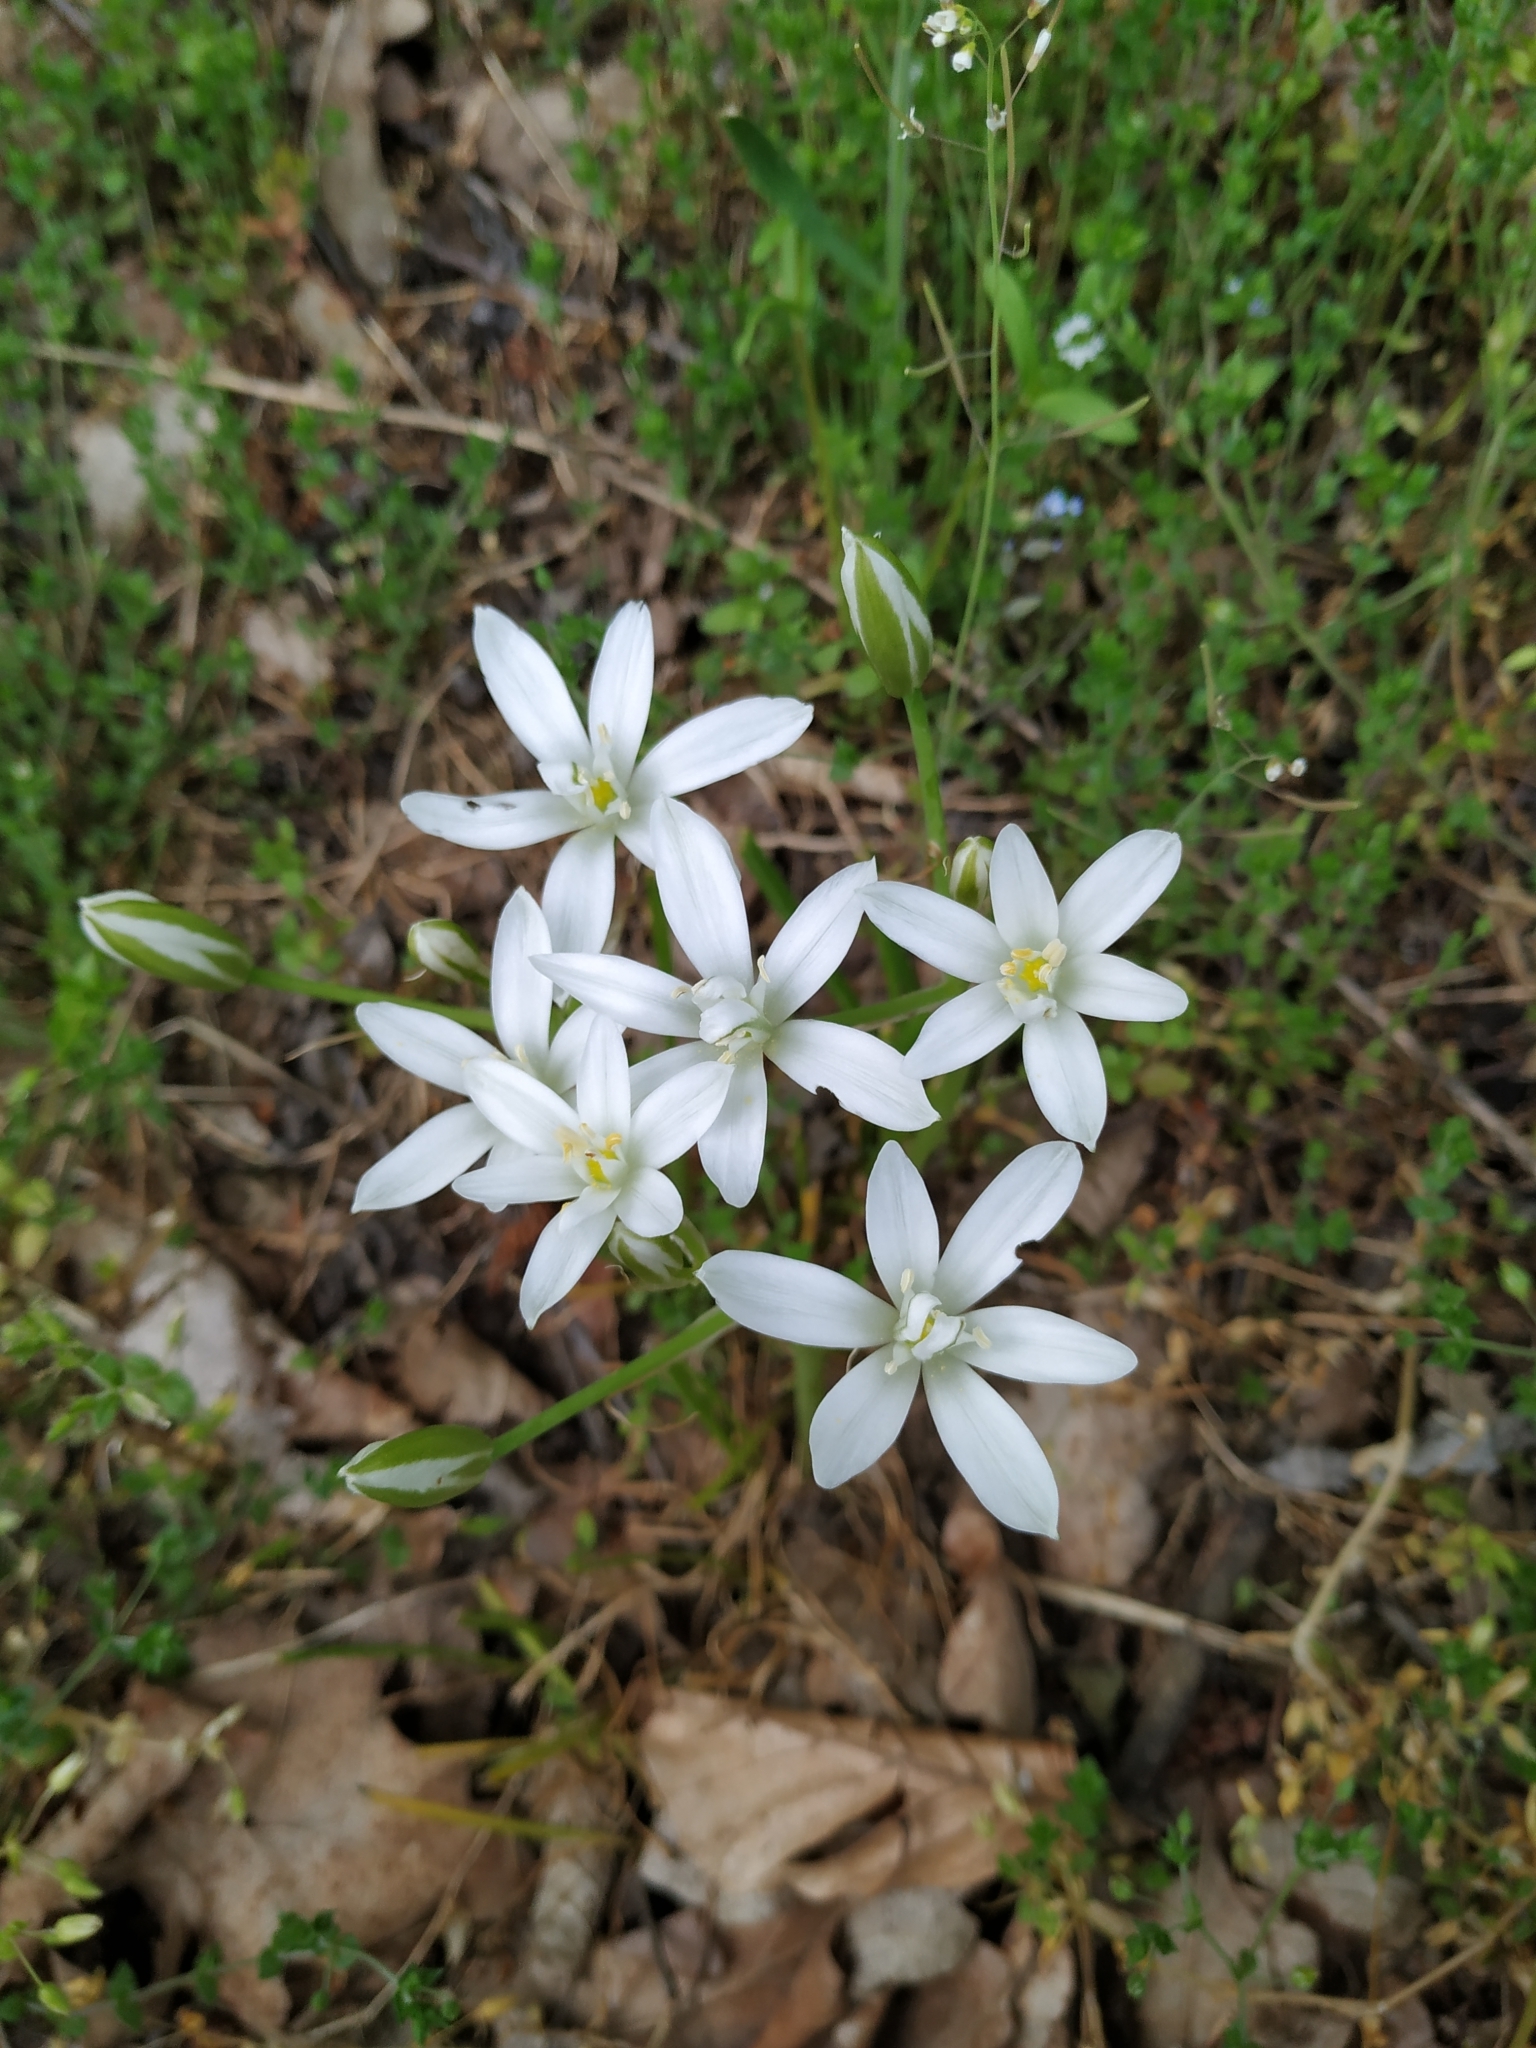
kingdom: Plantae
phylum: Tracheophyta
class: Liliopsida
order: Asparagales
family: Asparagaceae
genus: Ornithogalum
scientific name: Ornithogalum umbellatum
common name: Garden star-of-bethlehem
